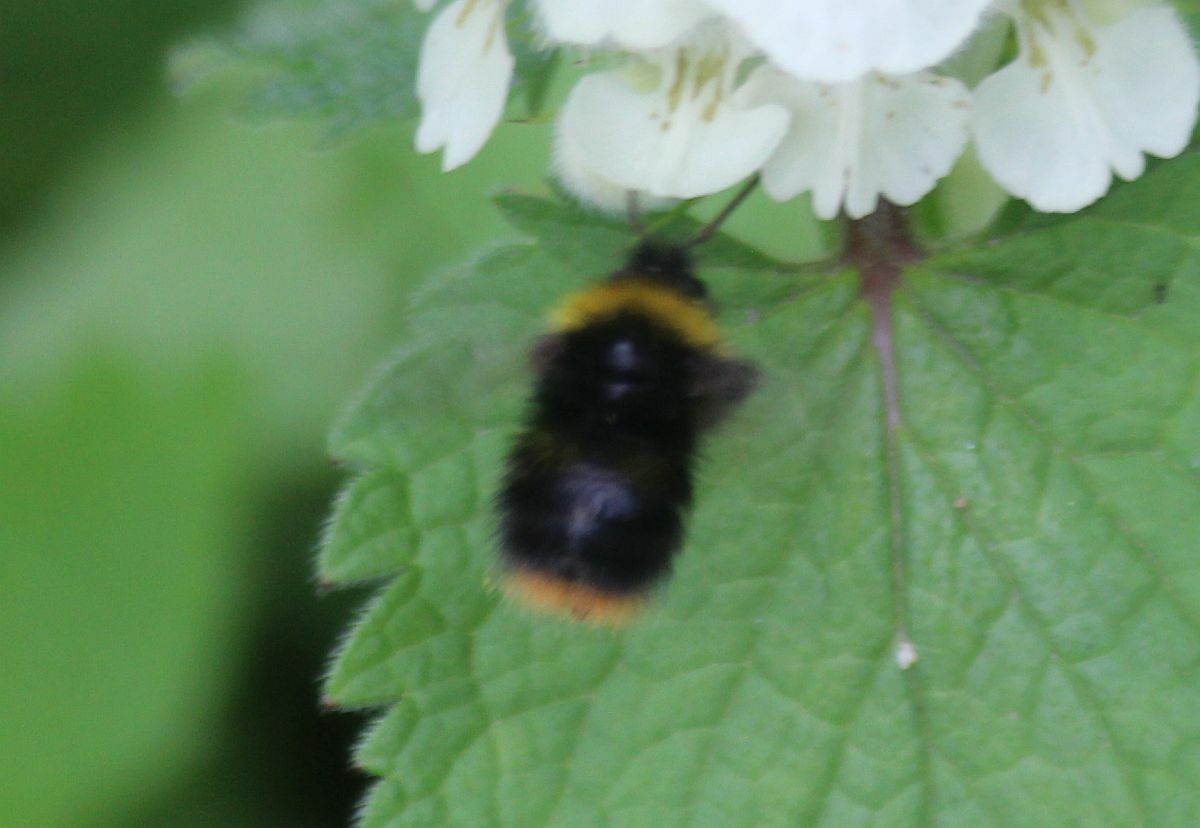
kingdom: Animalia
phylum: Arthropoda
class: Insecta
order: Hymenoptera
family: Apidae
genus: Bombus
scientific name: Bombus pratorum
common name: Early humble-bee
